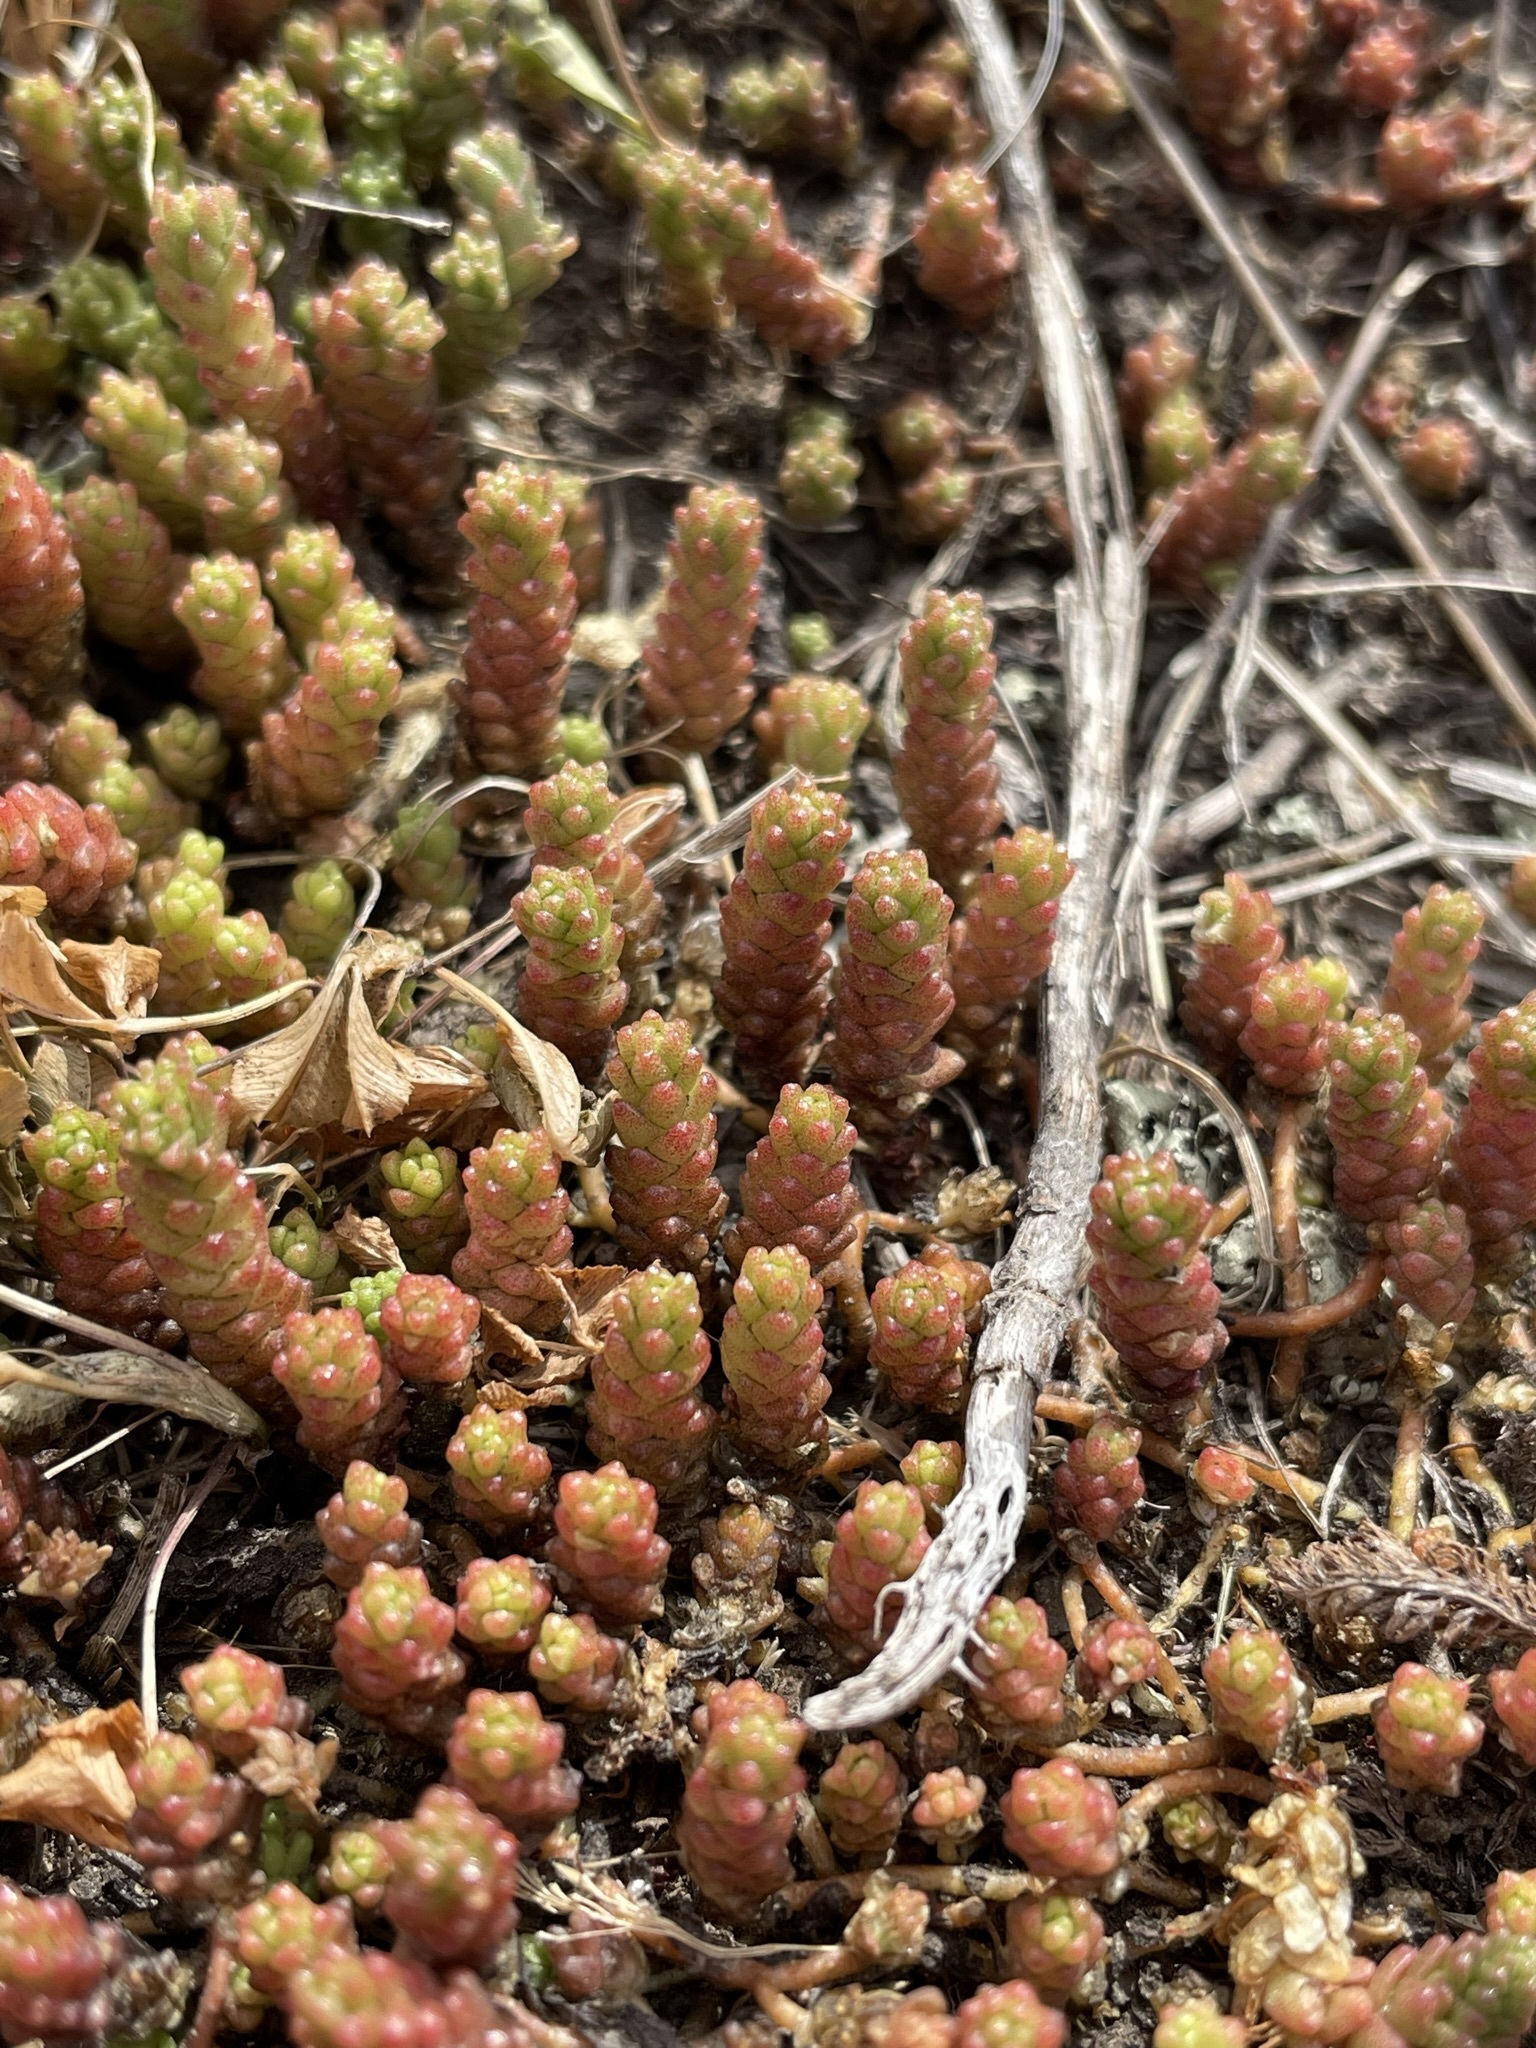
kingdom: Plantae
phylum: Tracheophyta
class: Magnoliopsida
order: Saxifragales
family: Crassulaceae
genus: Sedum
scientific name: Sedum acre
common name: Biting stonecrop
